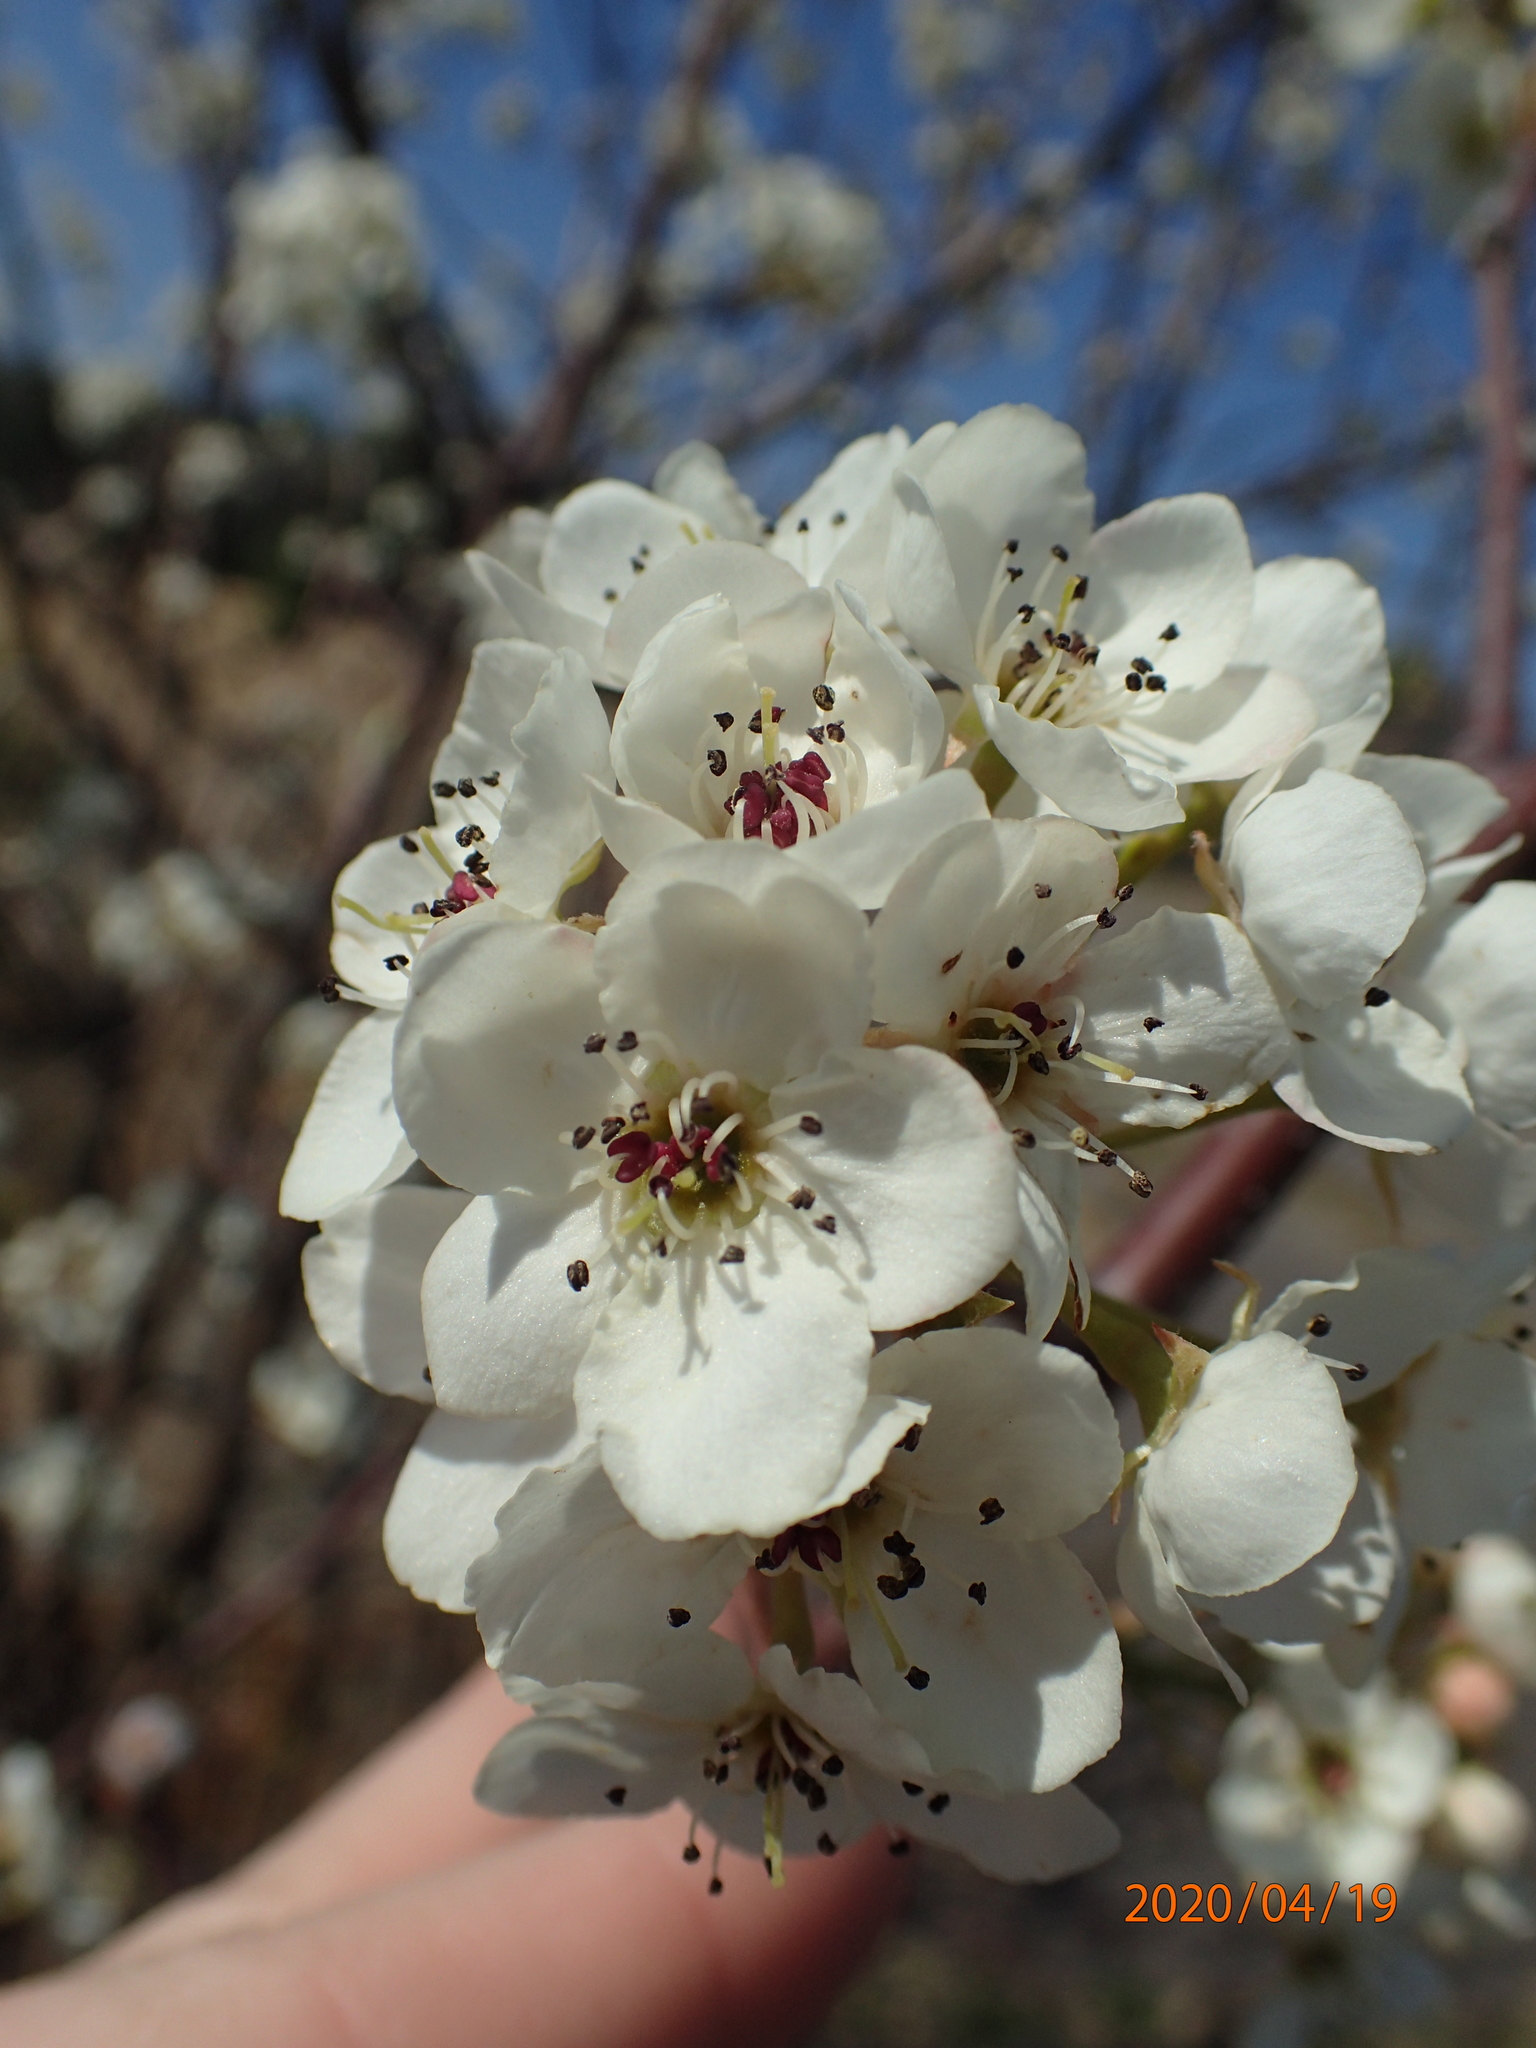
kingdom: Plantae
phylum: Tracheophyta
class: Magnoliopsida
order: Rosales
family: Rosaceae
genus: Pyrus
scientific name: Pyrus calleryana
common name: Callery pear
